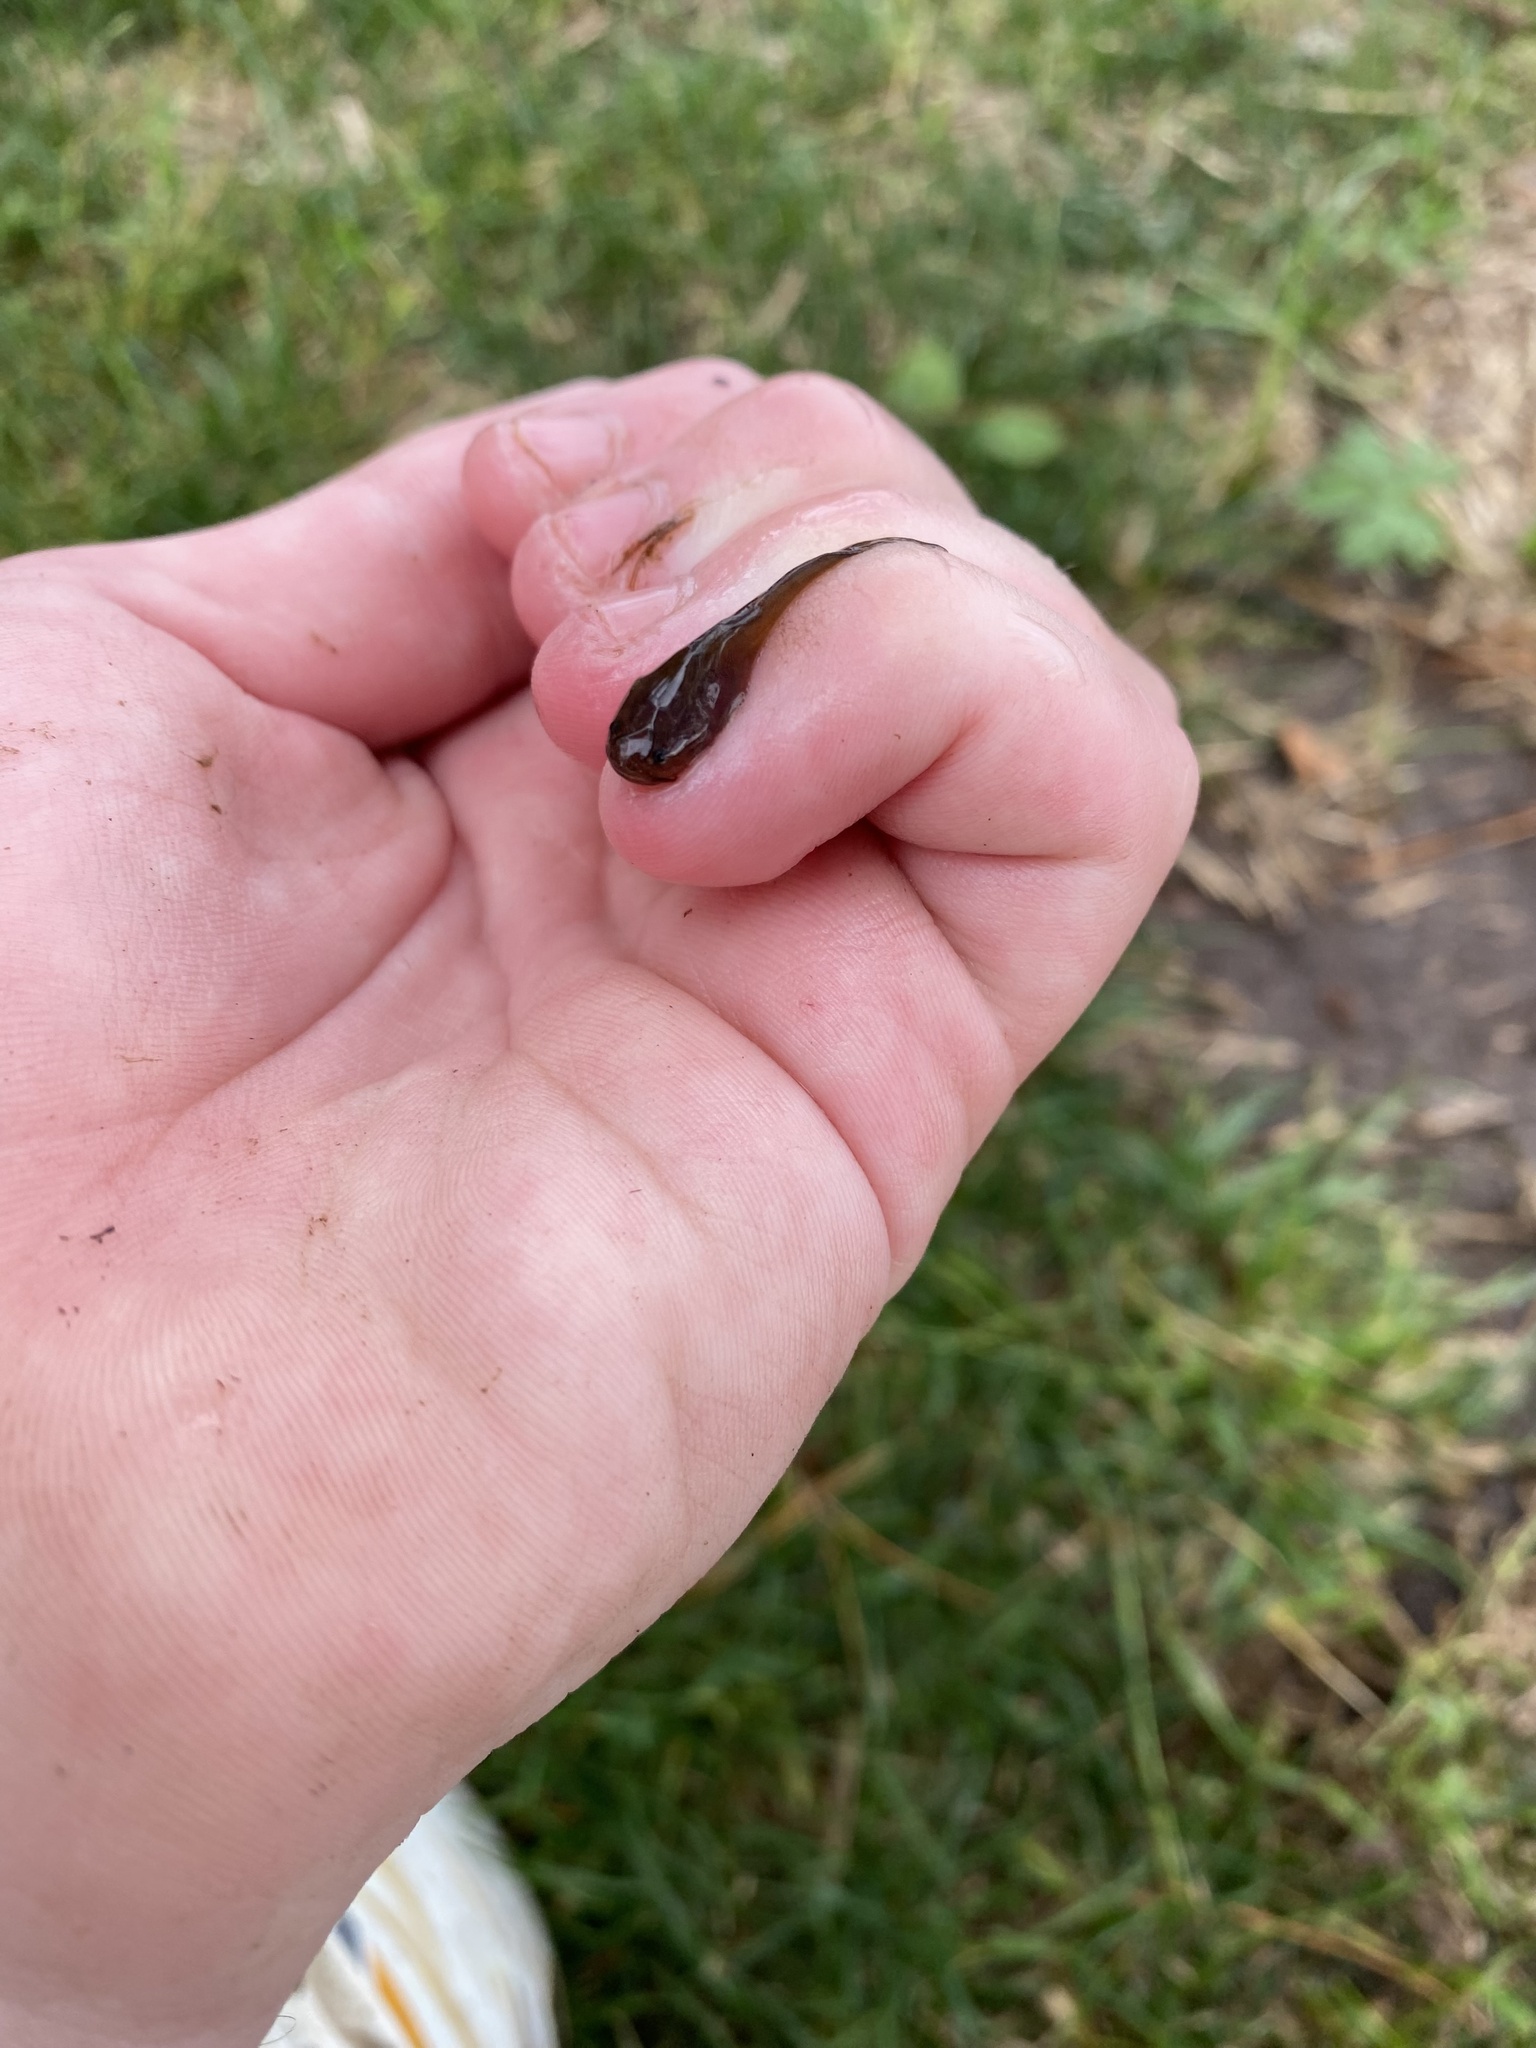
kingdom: Animalia
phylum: Chordata
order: Siluriformes
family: Ictaluridae
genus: Noturus
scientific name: Noturus gyrinus
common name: Tadpole madtom
